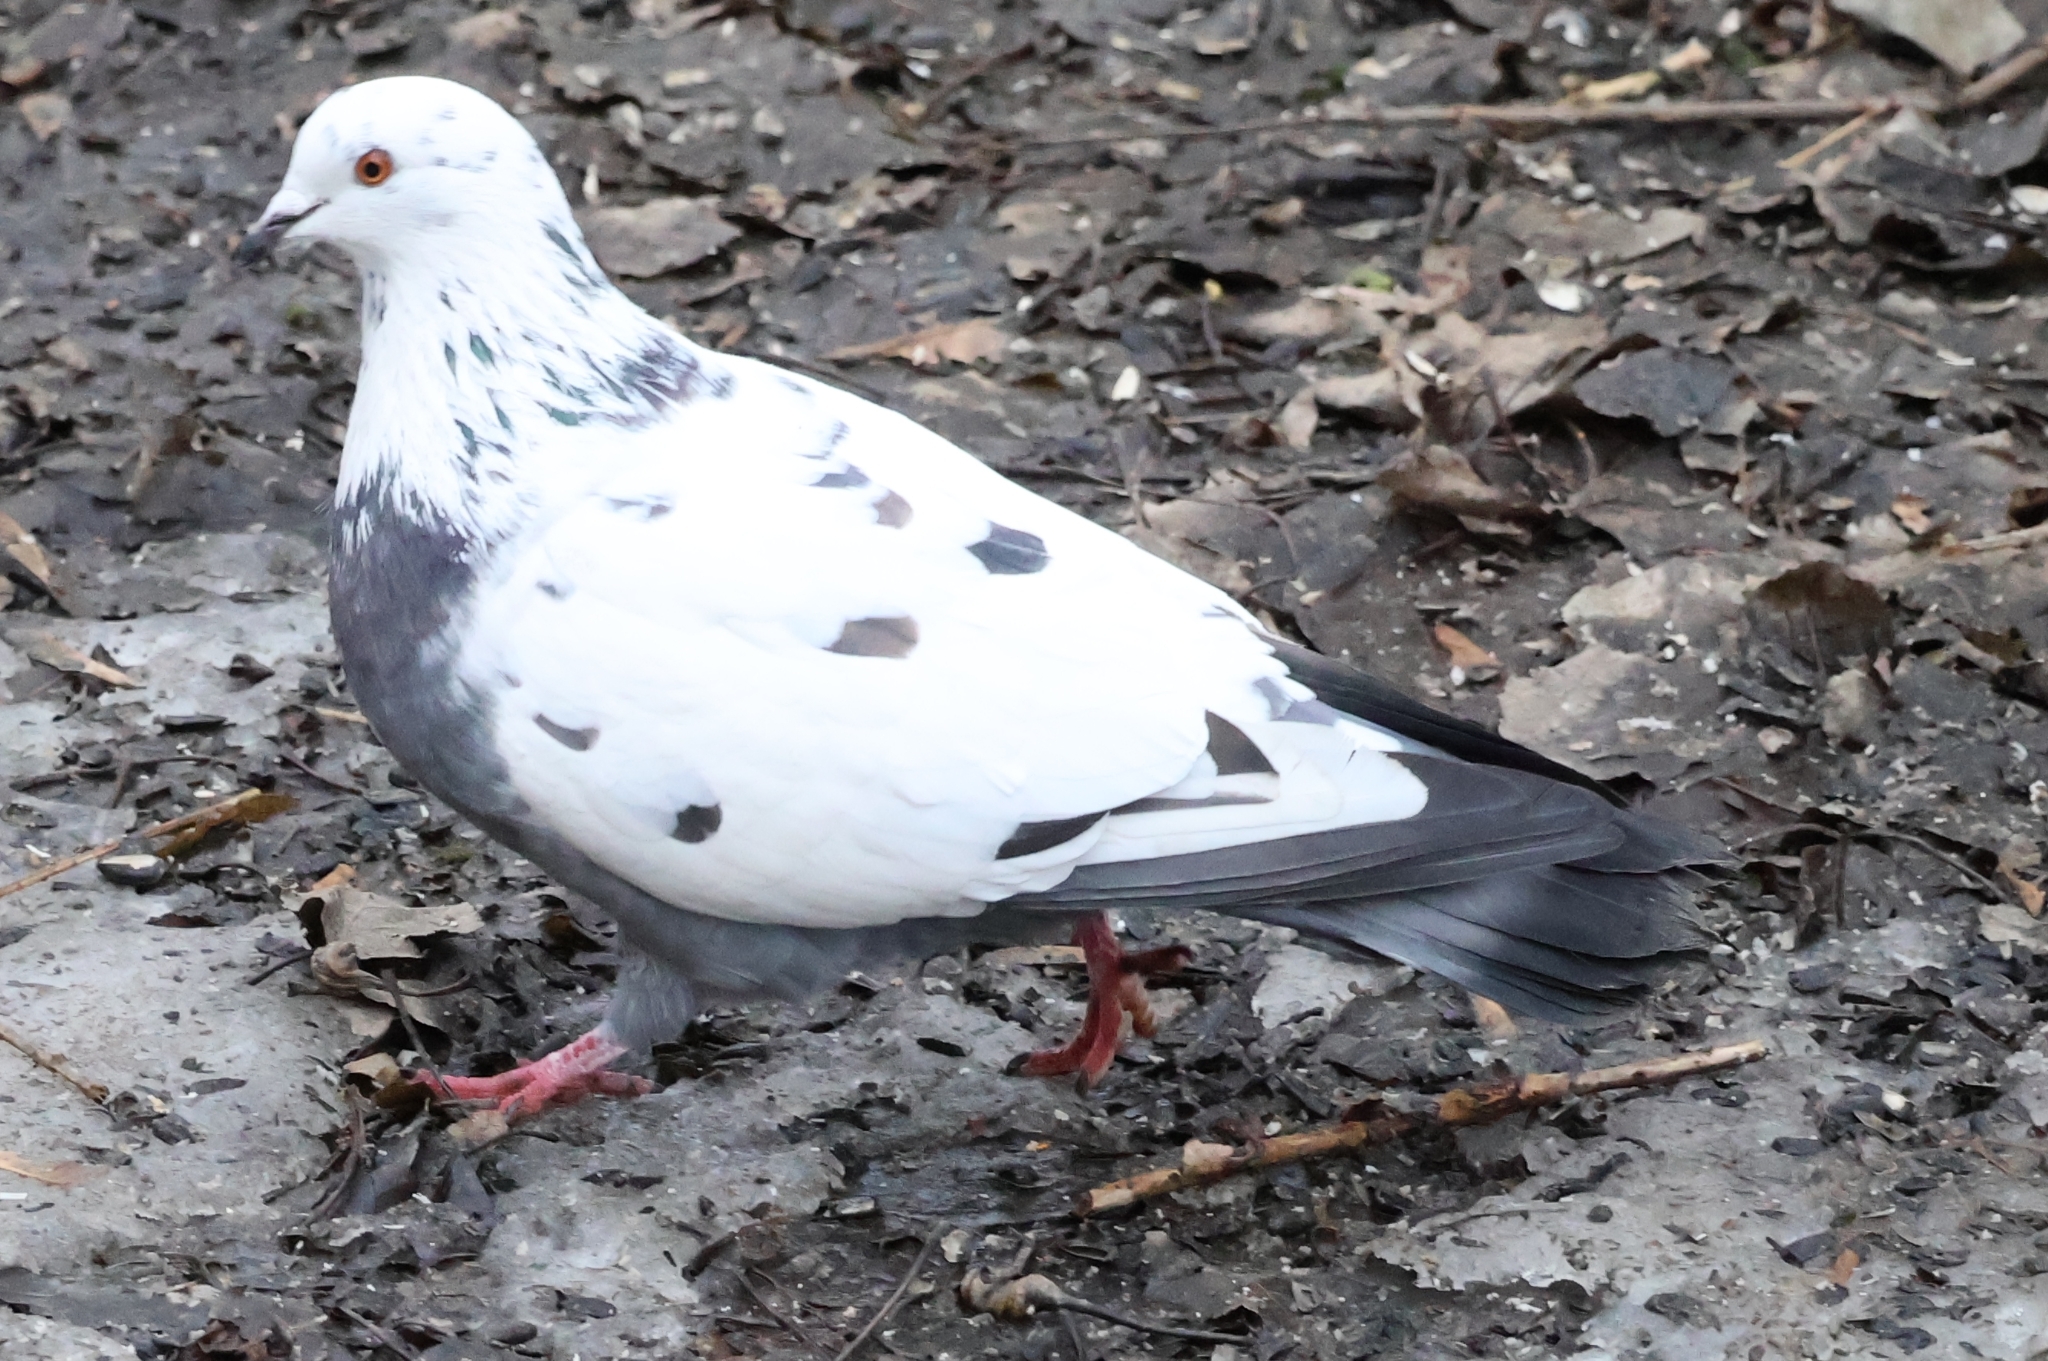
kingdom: Animalia
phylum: Chordata
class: Aves
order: Columbiformes
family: Columbidae
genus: Columba
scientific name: Columba livia
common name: Rock pigeon
